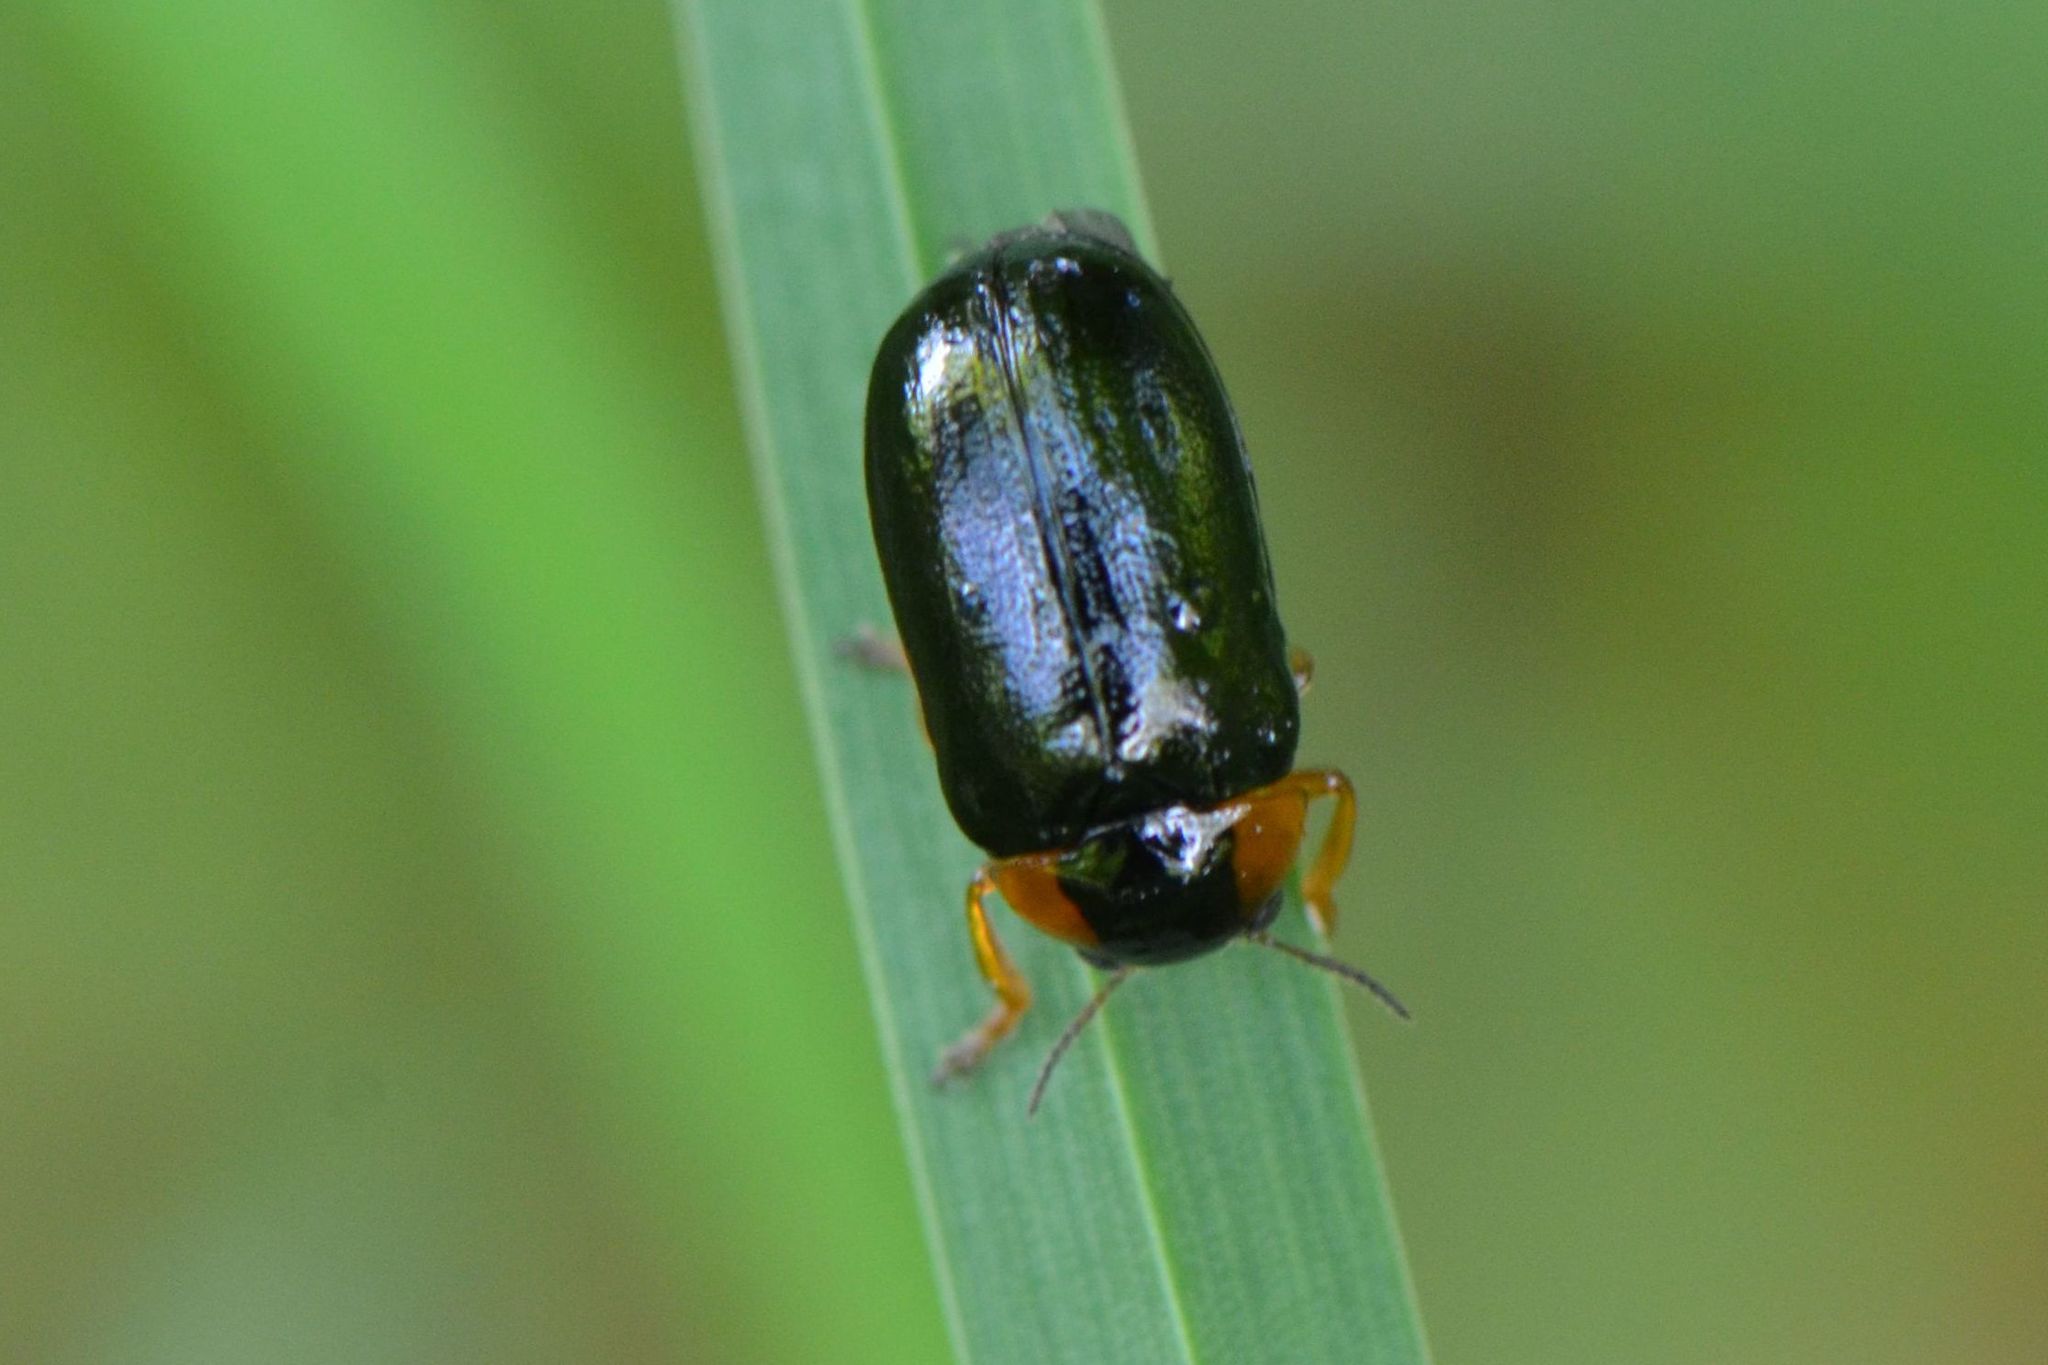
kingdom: Animalia
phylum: Arthropoda
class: Insecta
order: Coleoptera
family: Chrysomelidae
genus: Smaragdina
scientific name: Smaragdina aurita
